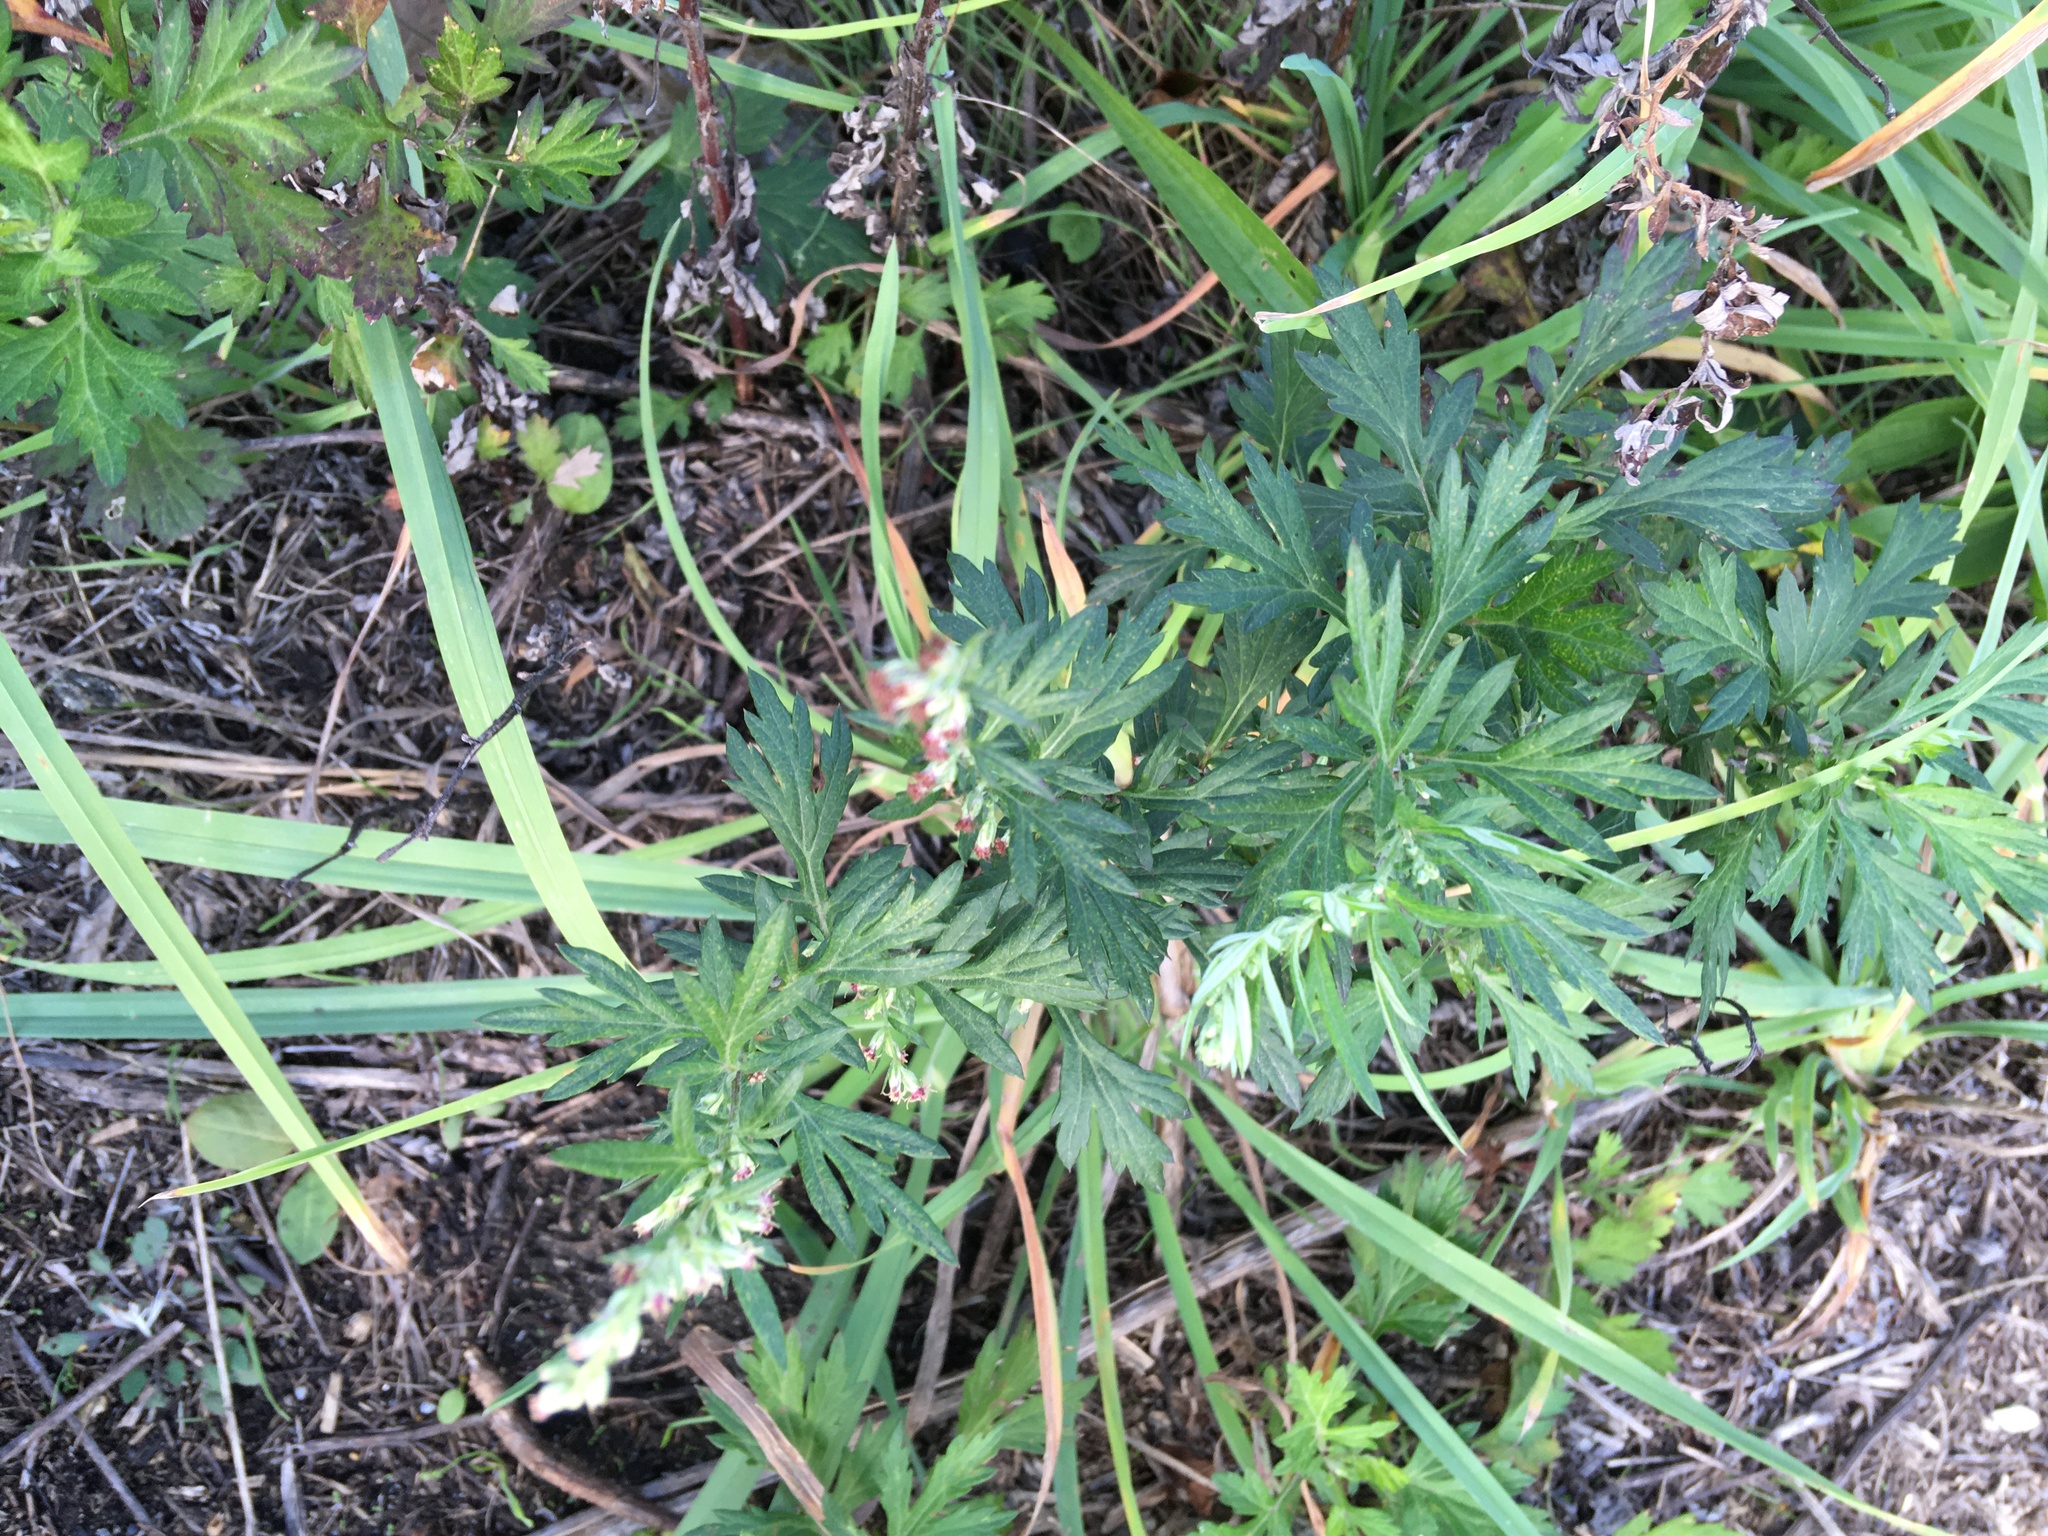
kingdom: Plantae
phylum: Tracheophyta
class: Magnoliopsida
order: Asterales
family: Asteraceae
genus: Artemisia
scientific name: Artemisia vulgaris
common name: Mugwort
